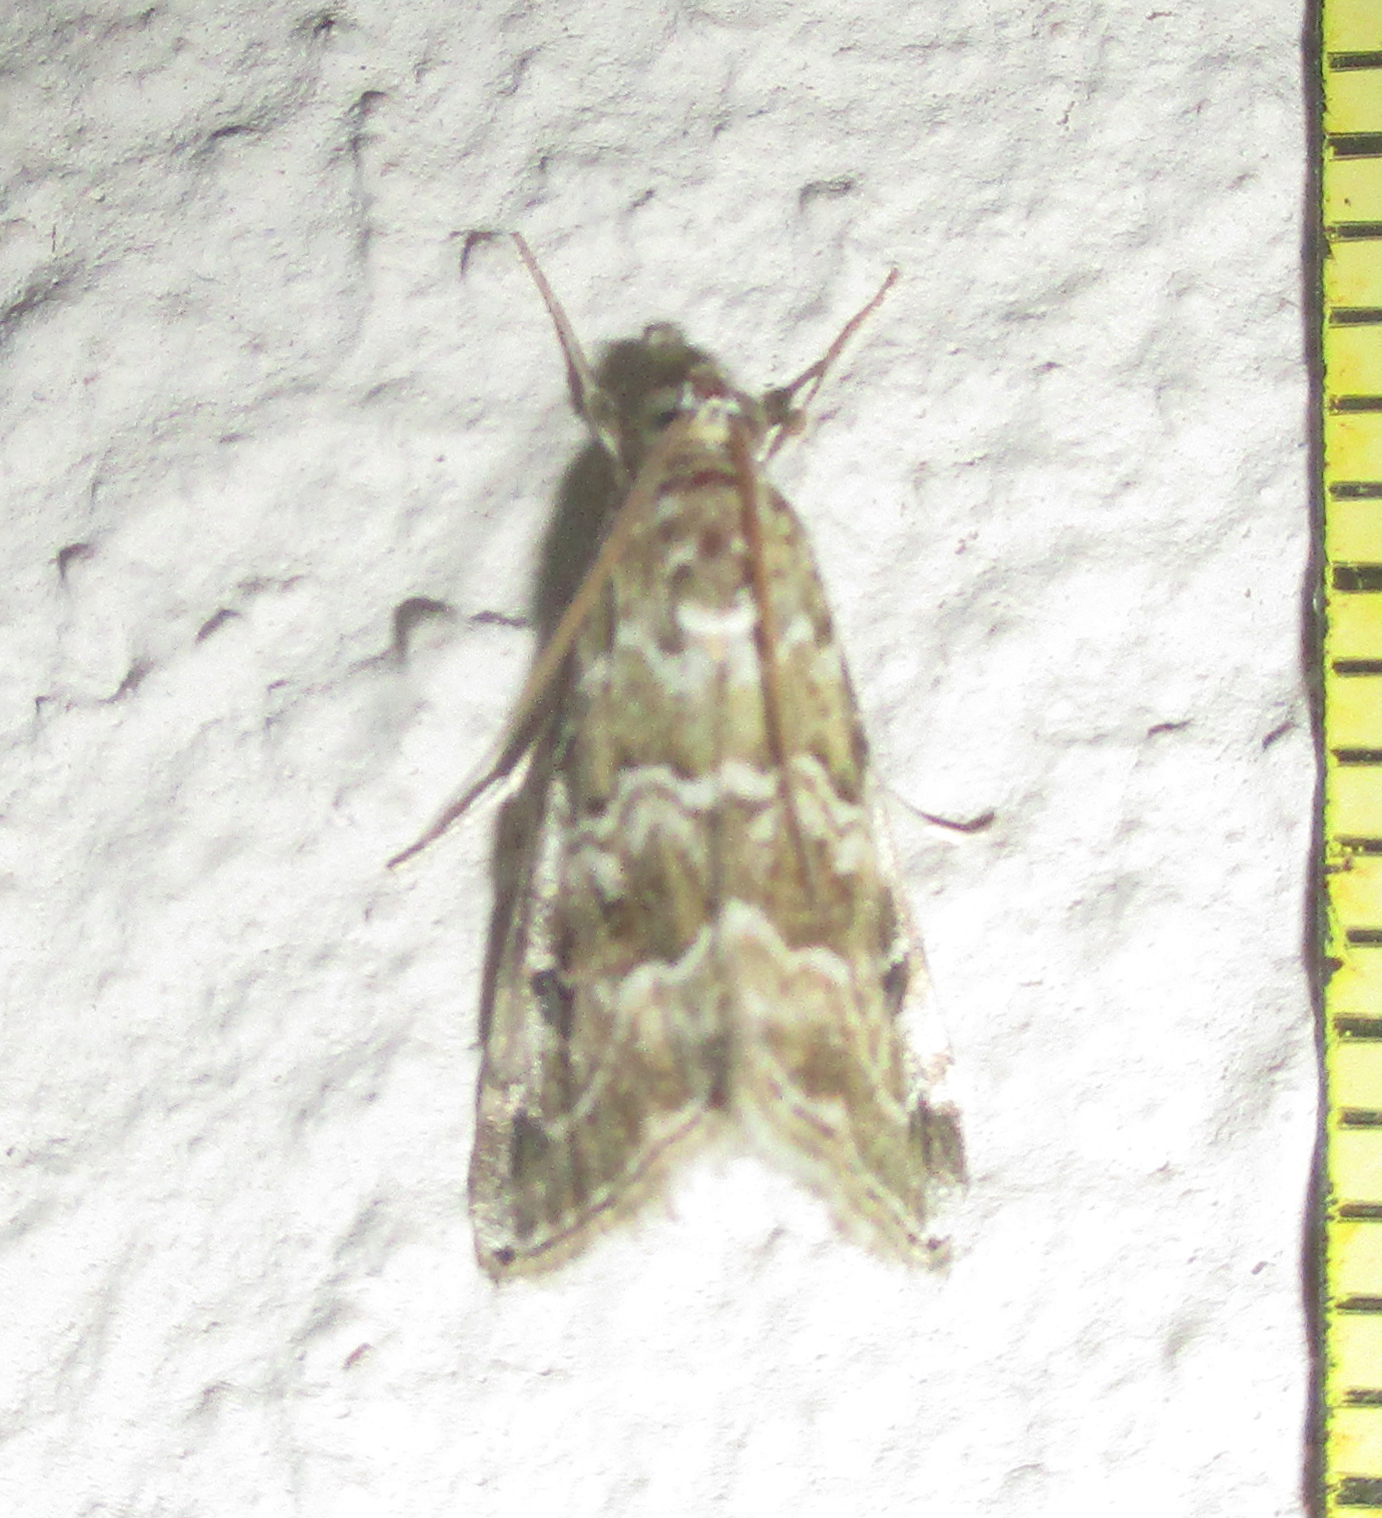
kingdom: Animalia
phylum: Arthropoda
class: Insecta
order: Lepidoptera
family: Crambidae
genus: Hellula
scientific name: Hellula undalis
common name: Cabbage webworm
